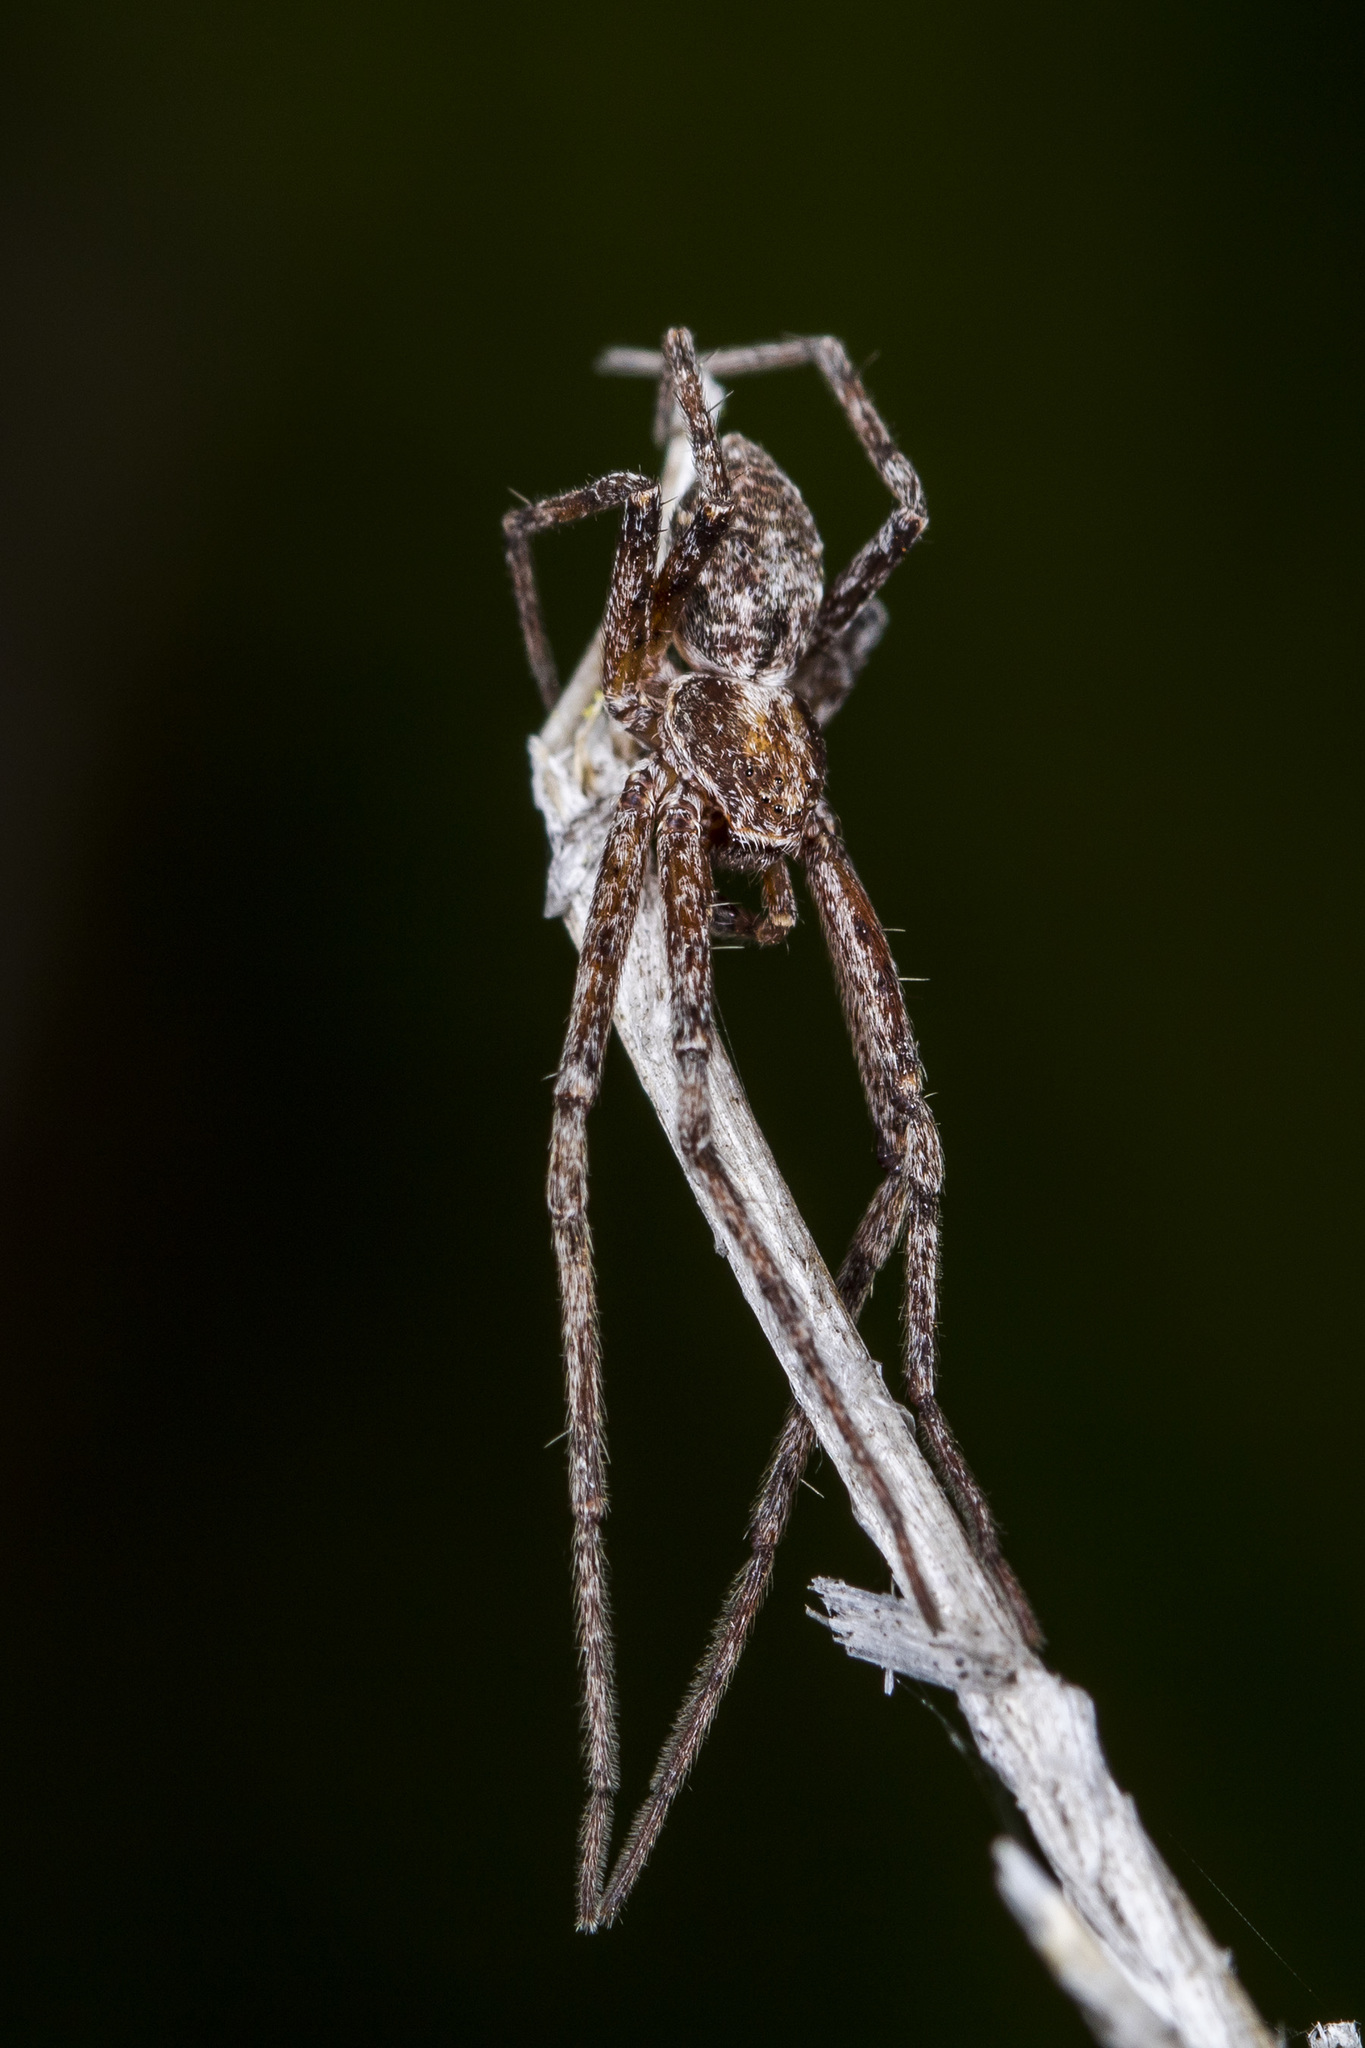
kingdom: Animalia
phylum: Arthropoda
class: Arachnida
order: Araneae
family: Philodromidae
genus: Rhysodromus
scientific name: Rhysodromus pictus
